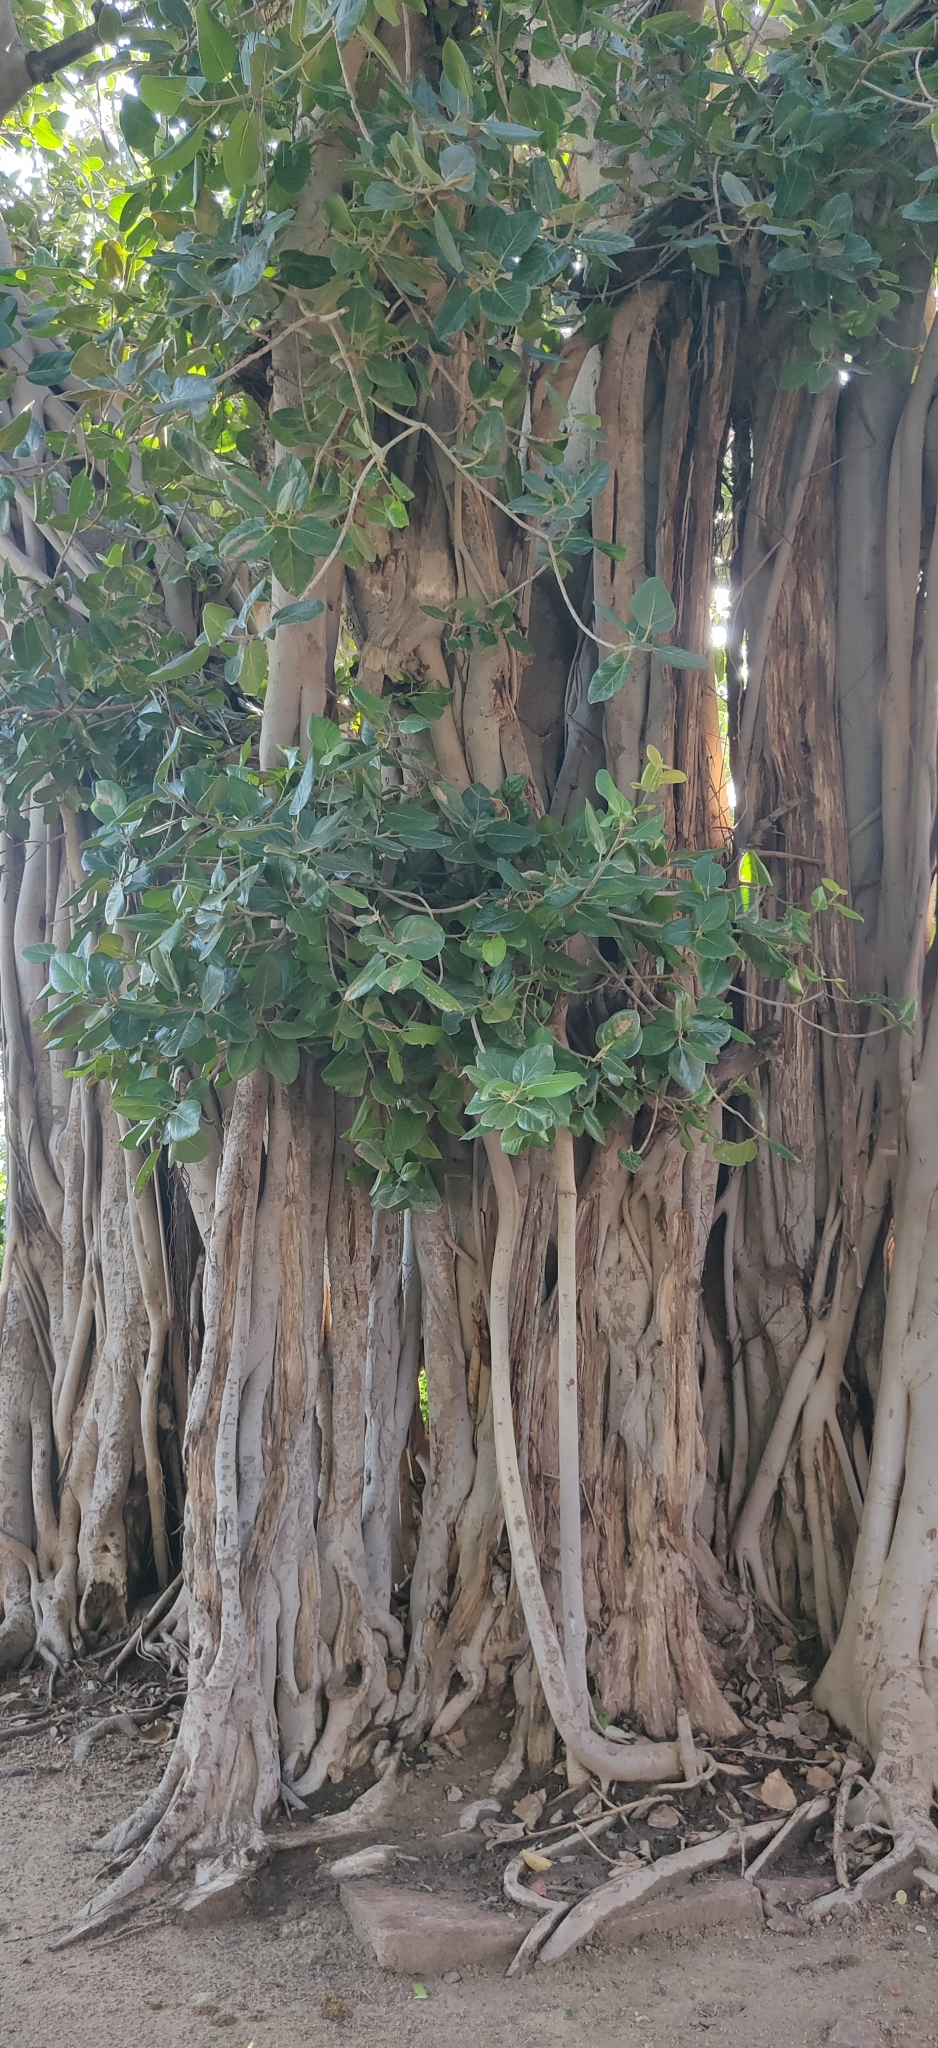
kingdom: Plantae
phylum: Tracheophyta
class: Magnoliopsida
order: Rosales
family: Moraceae
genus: Ficus
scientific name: Ficus benghalensis
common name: Indian banyan
